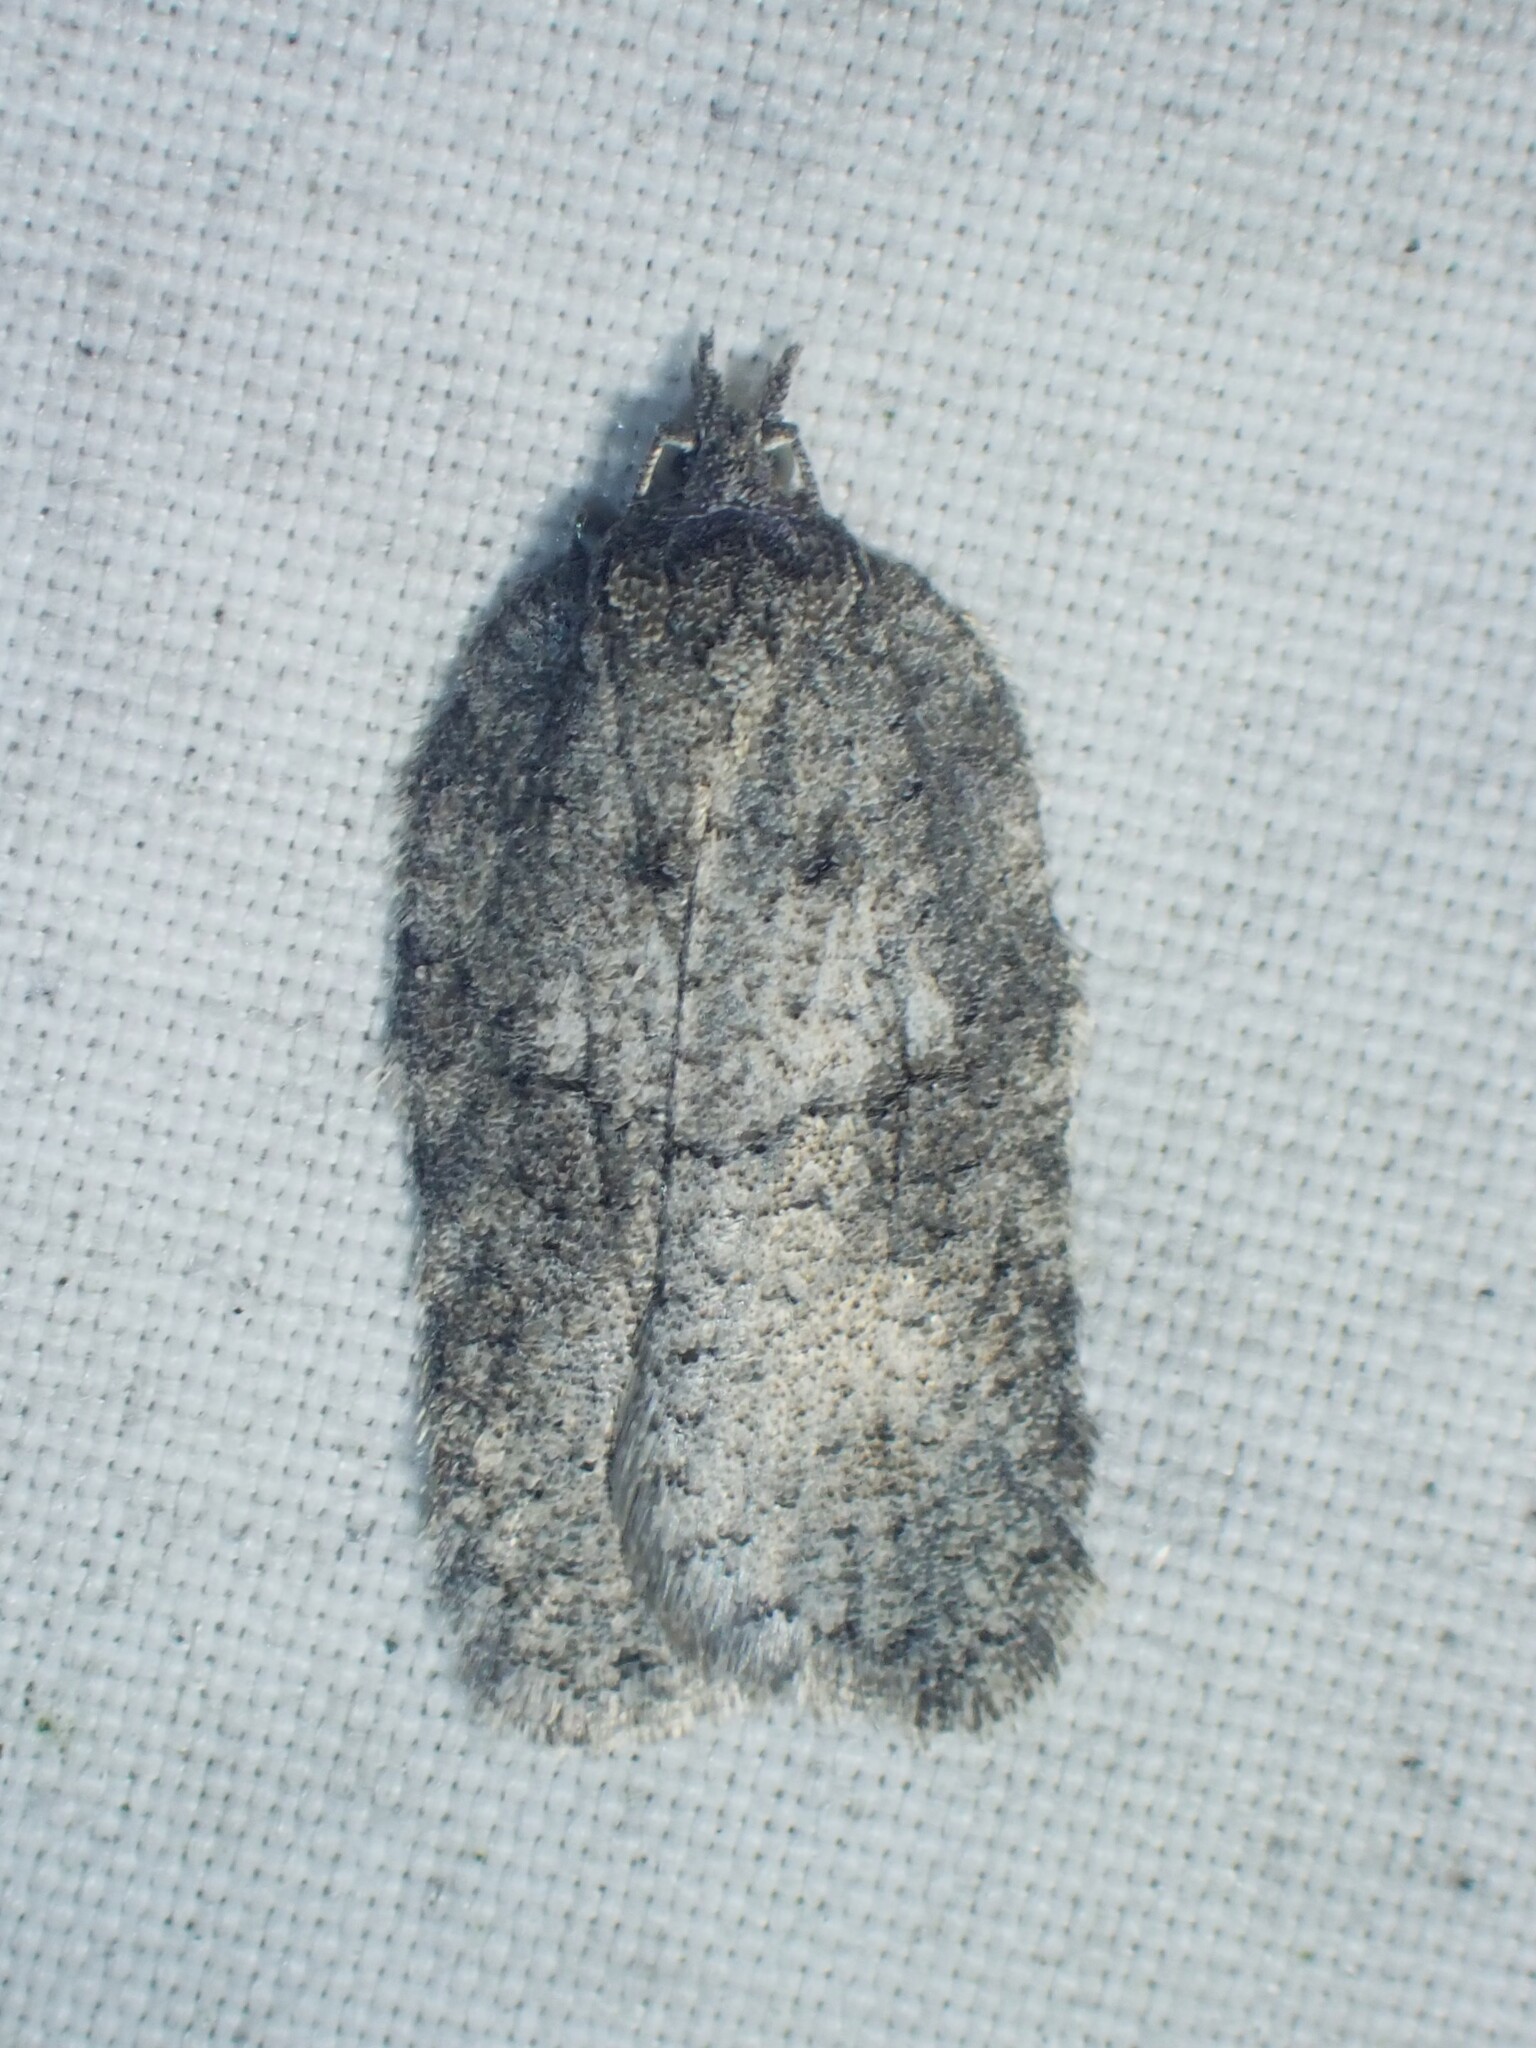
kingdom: Animalia
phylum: Arthropoda
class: Insecta
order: Lepidoptera
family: Tortricidae
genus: Acleris
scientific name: Acleris nigrolinea
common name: Black-lined acleris
